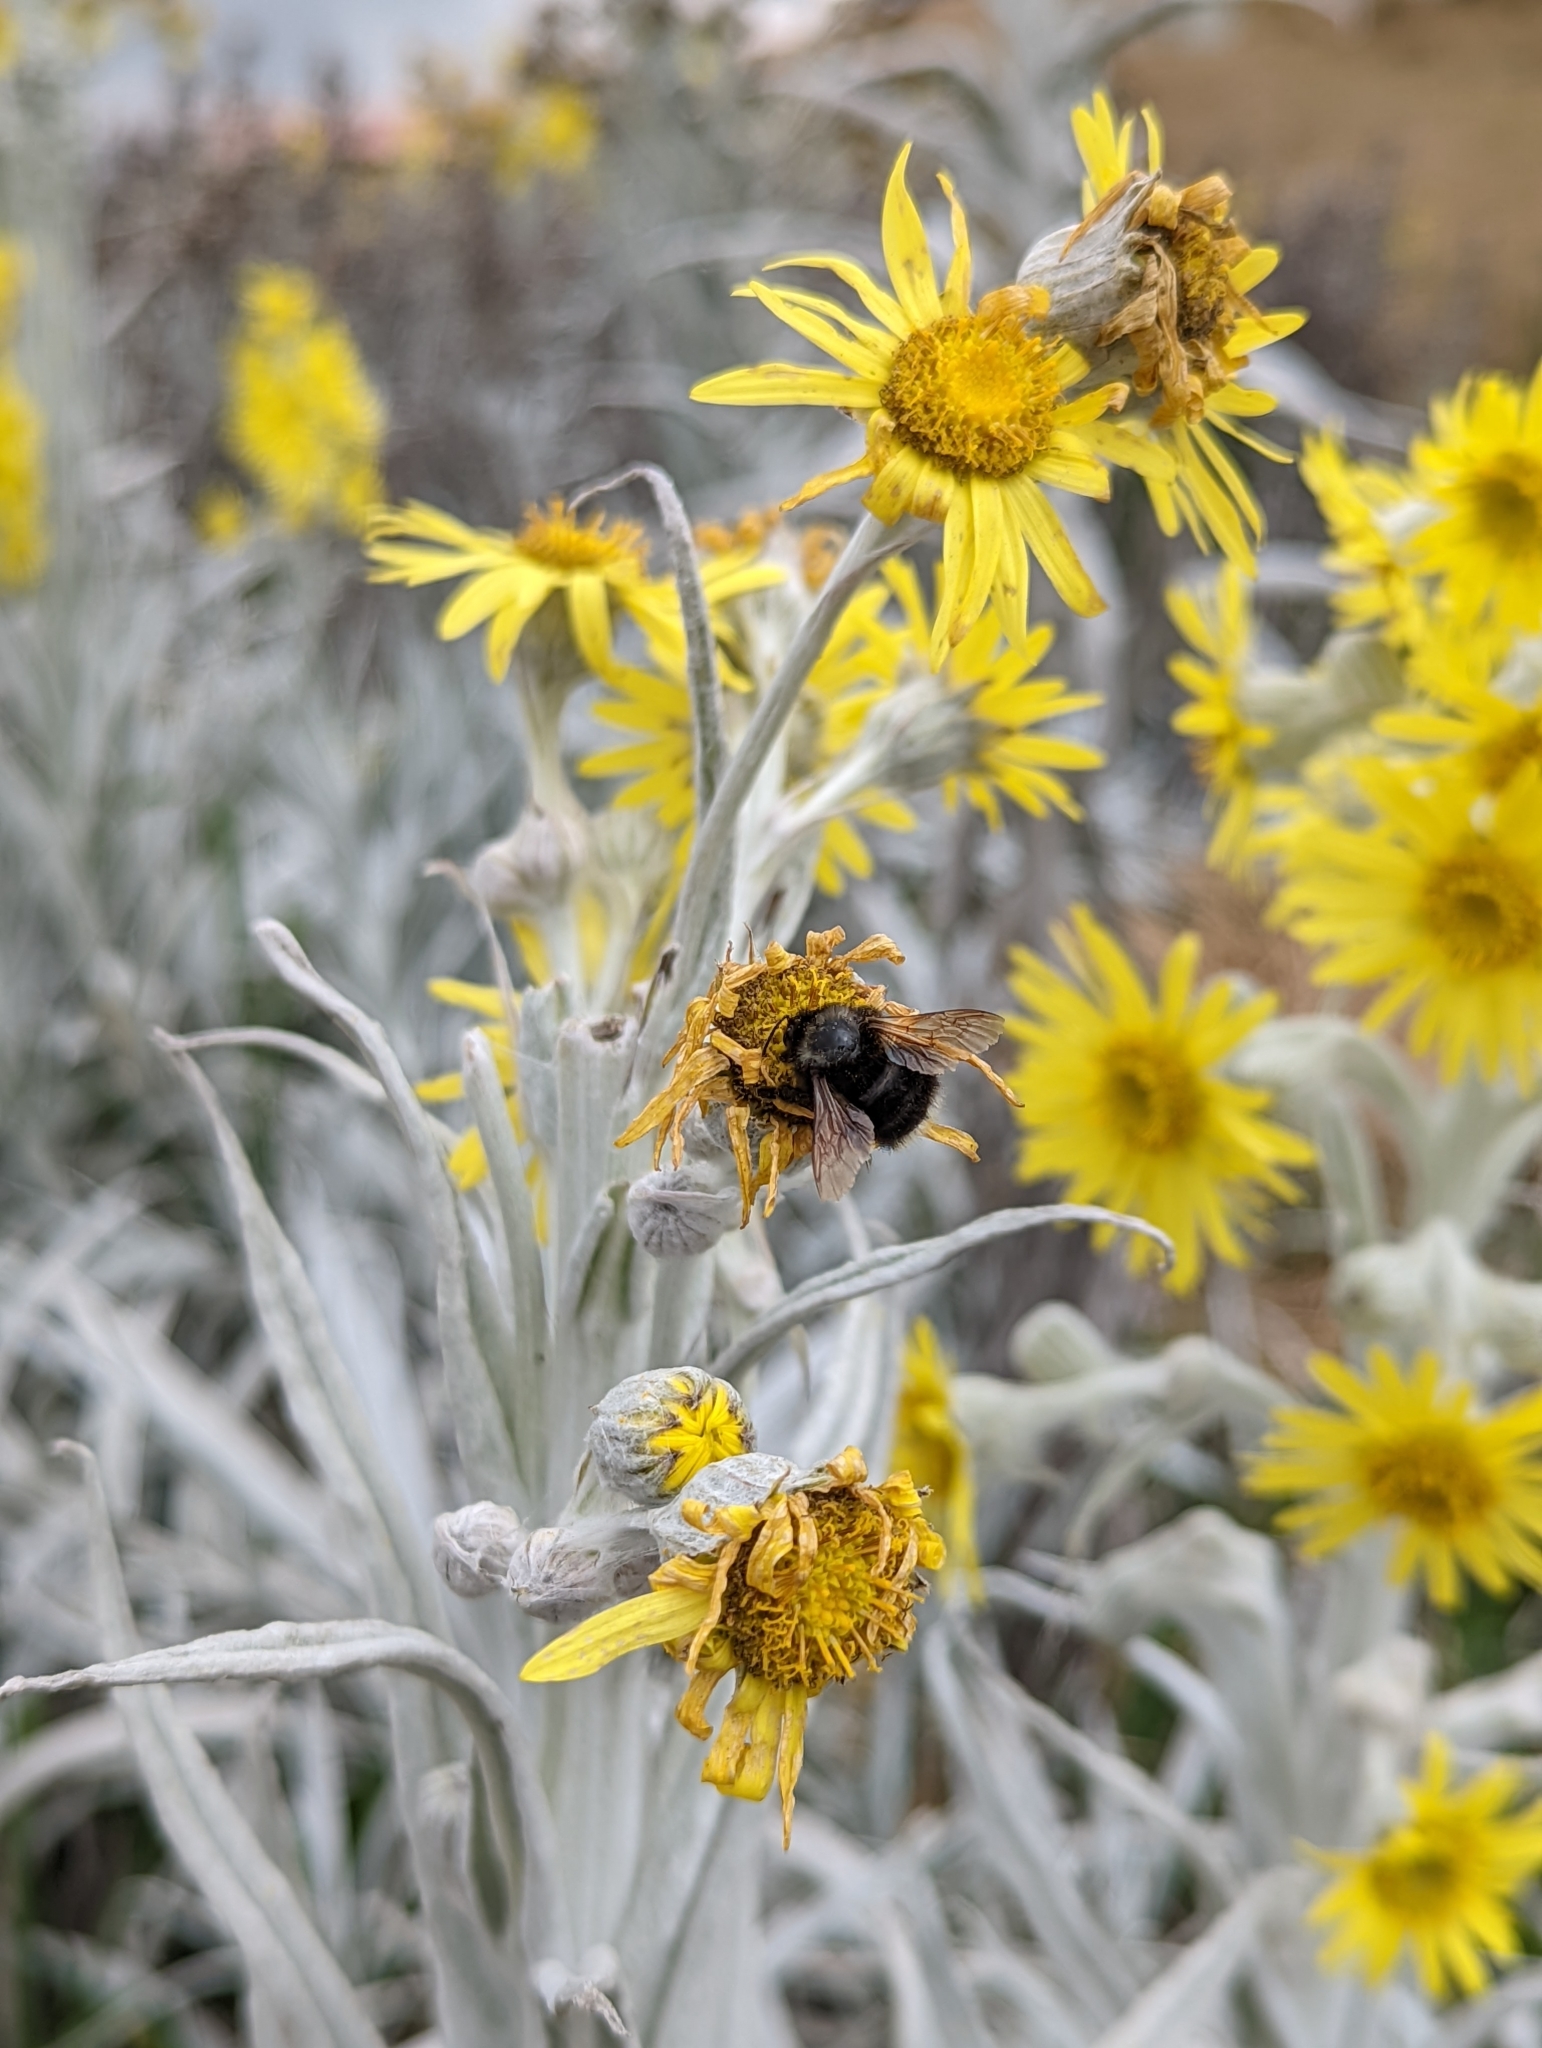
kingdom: Animalia
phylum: Arthropoda
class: Insecta
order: Hymenoptera
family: Apidae
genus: Bombus
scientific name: Bombus funebris
